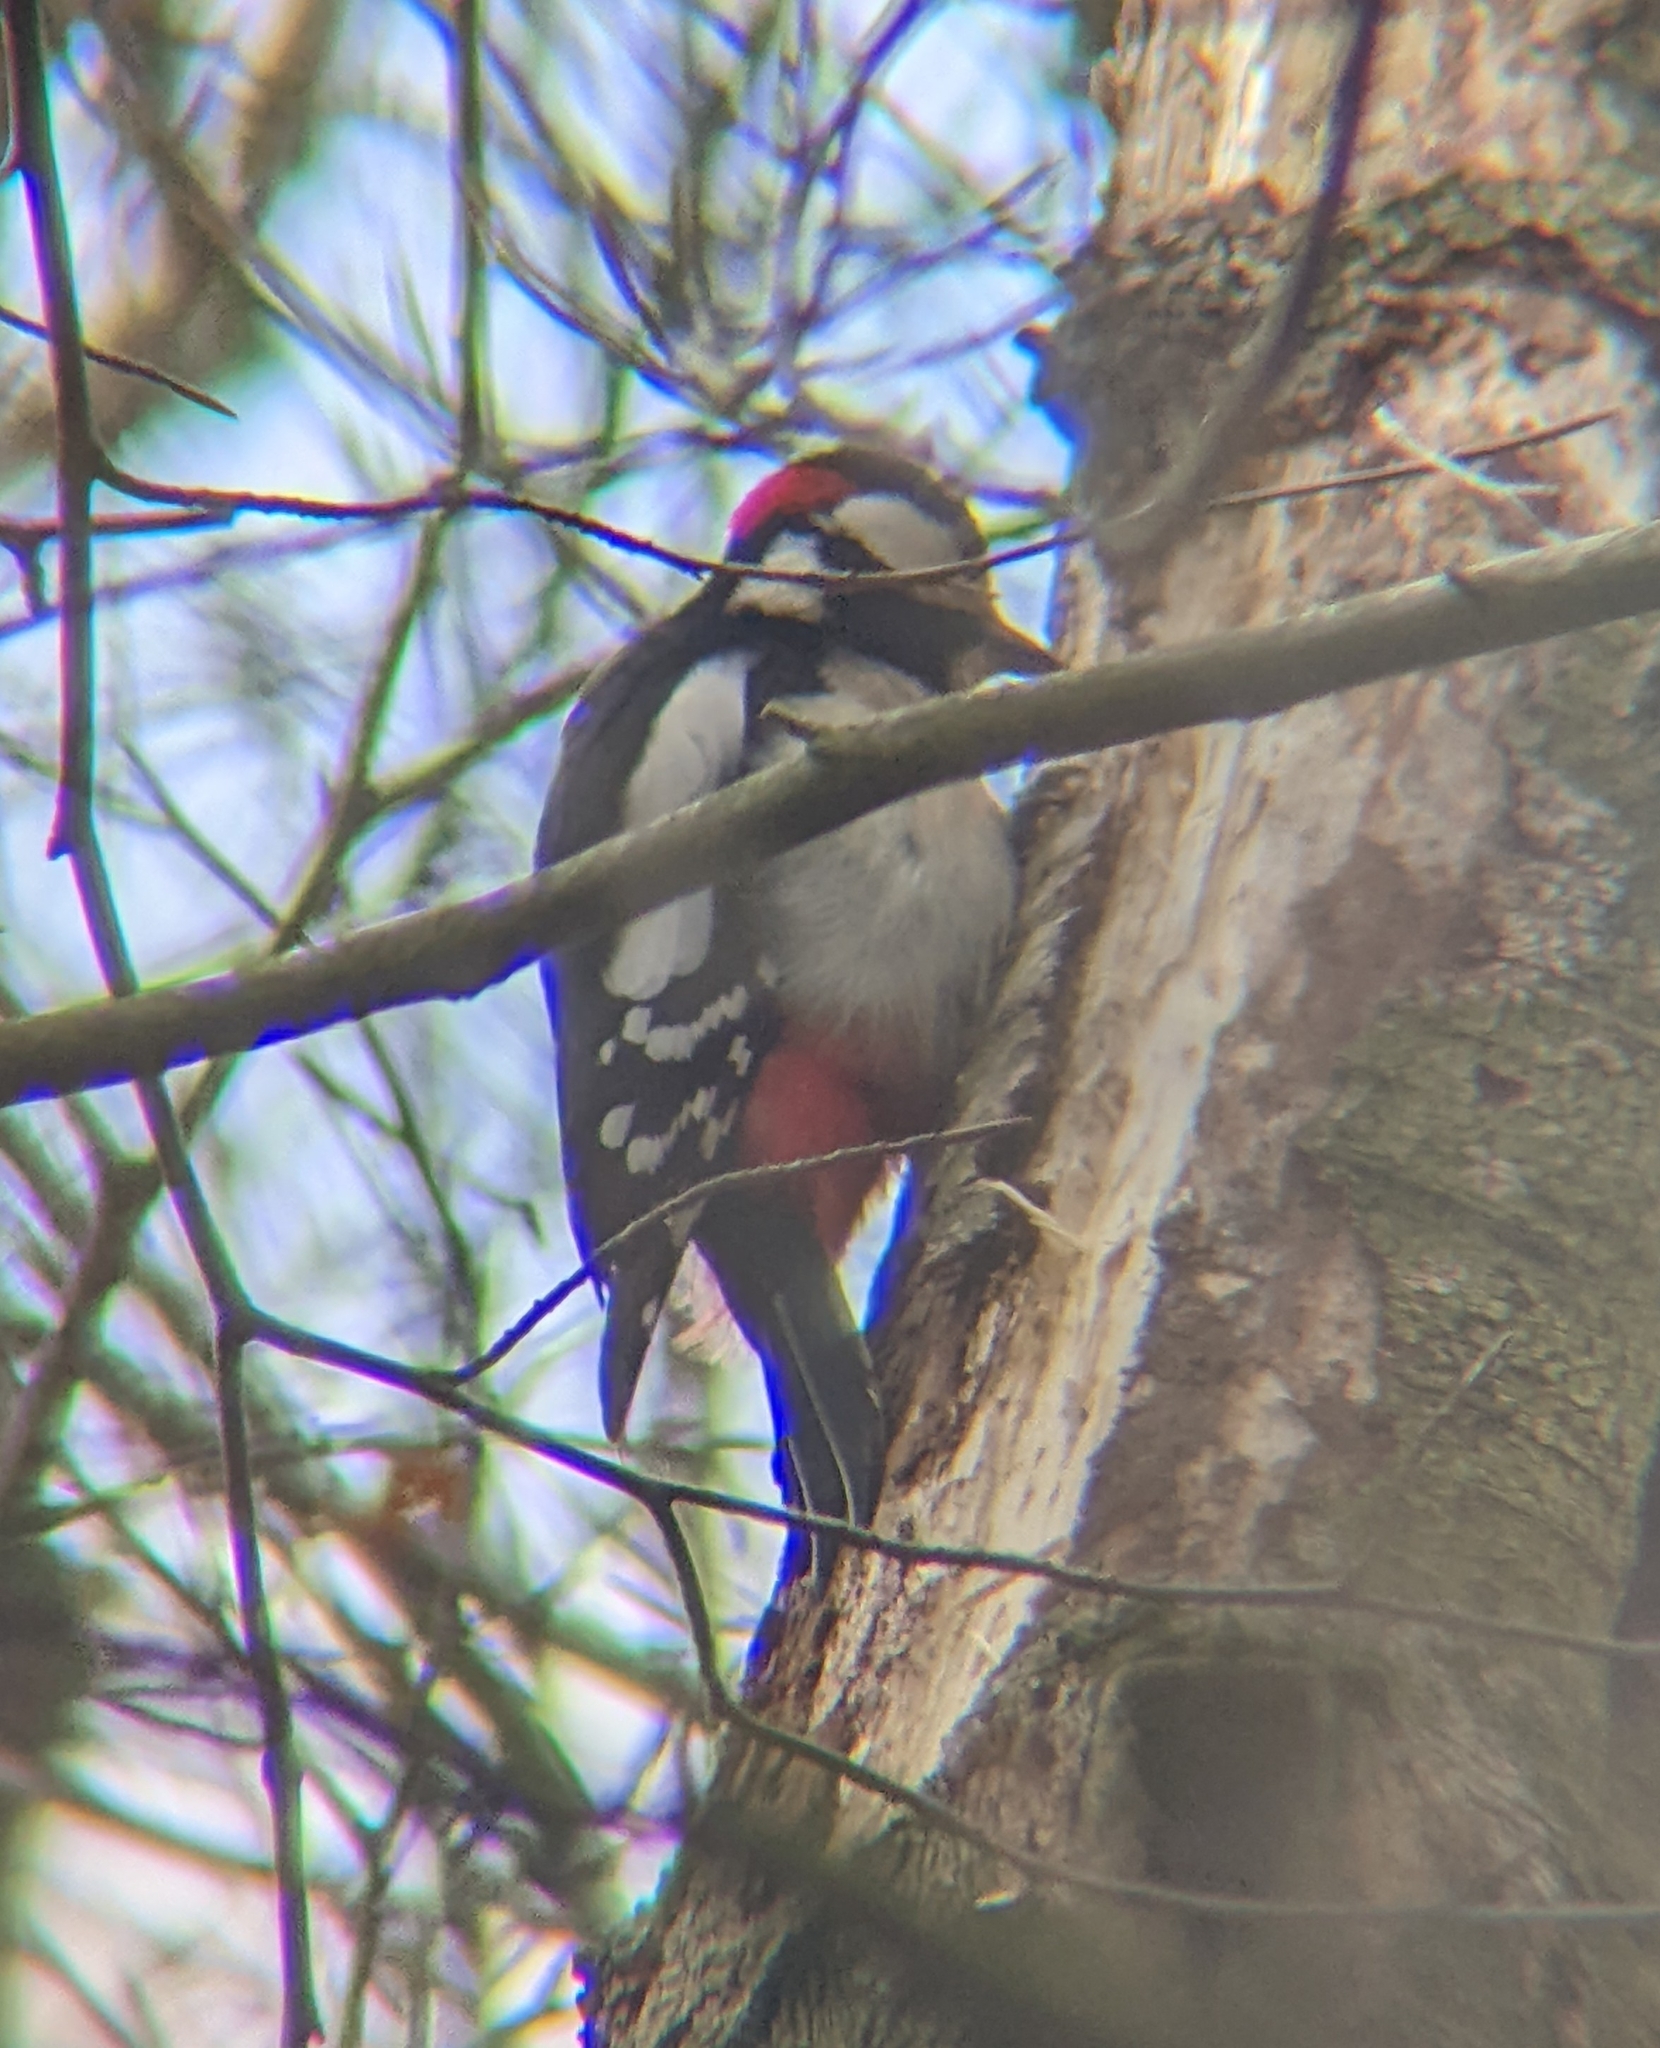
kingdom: Animalia
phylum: Chordata
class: Aves
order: Piciformes
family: Picidae
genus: Dendrocopos
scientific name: Dendrocopos major
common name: Great spotted woodpecker
